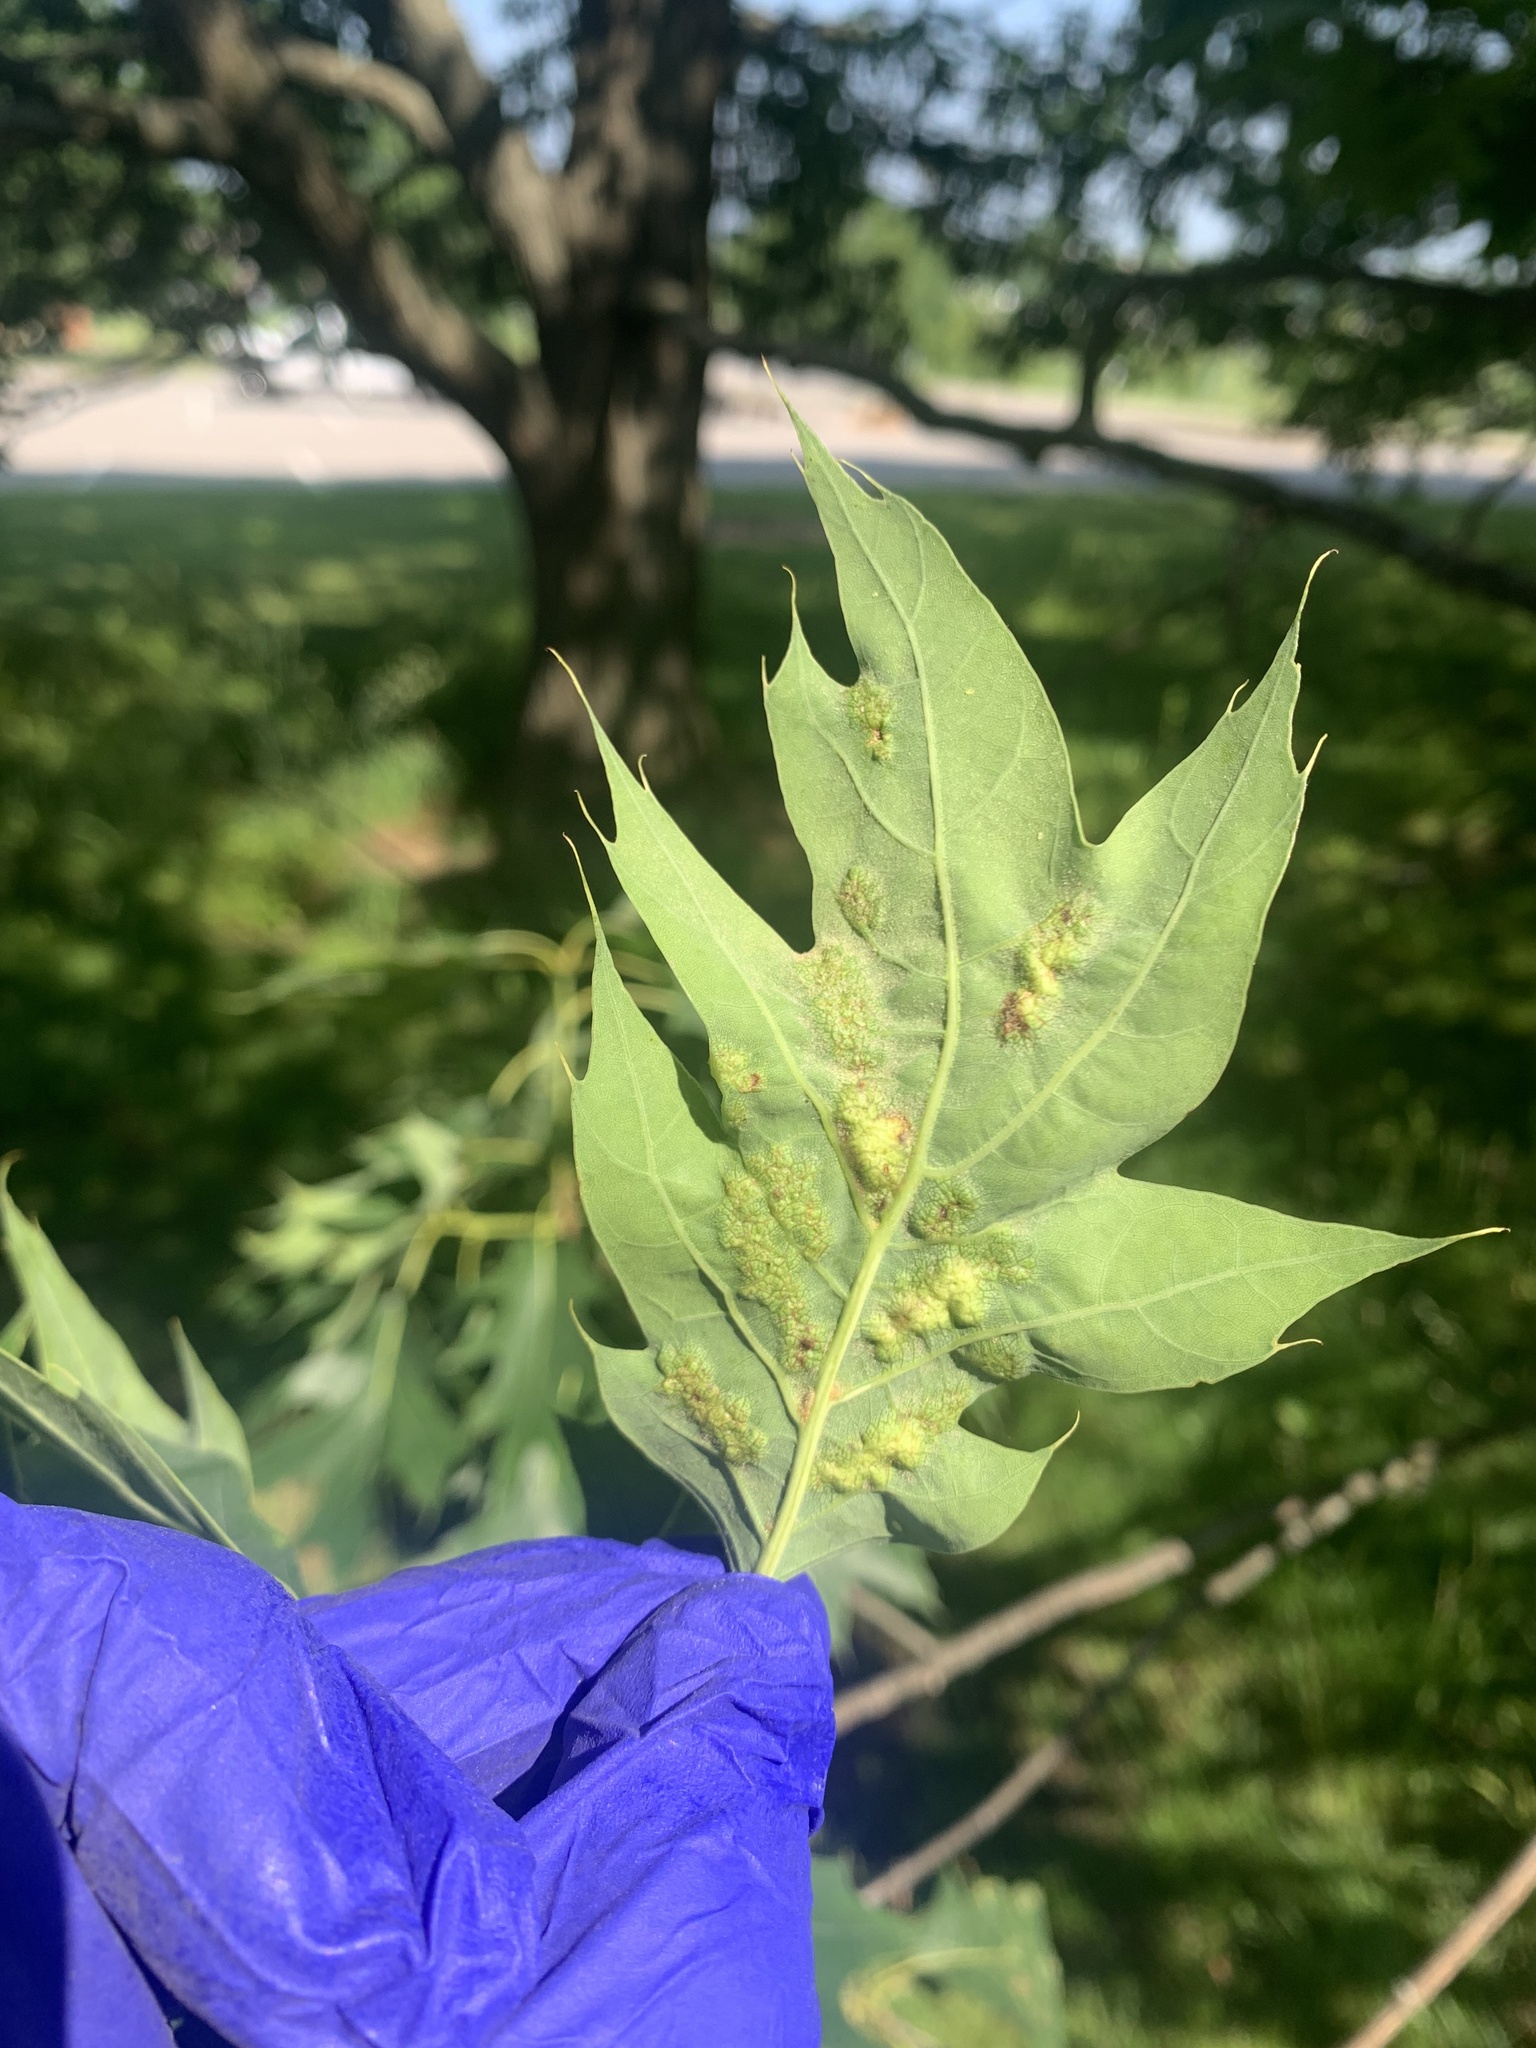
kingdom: Animalia
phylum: Arthropoda
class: Insecta
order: Hymenoptera
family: Cynipidae
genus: Melikaiella
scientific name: Melikaiella ostensackeni
